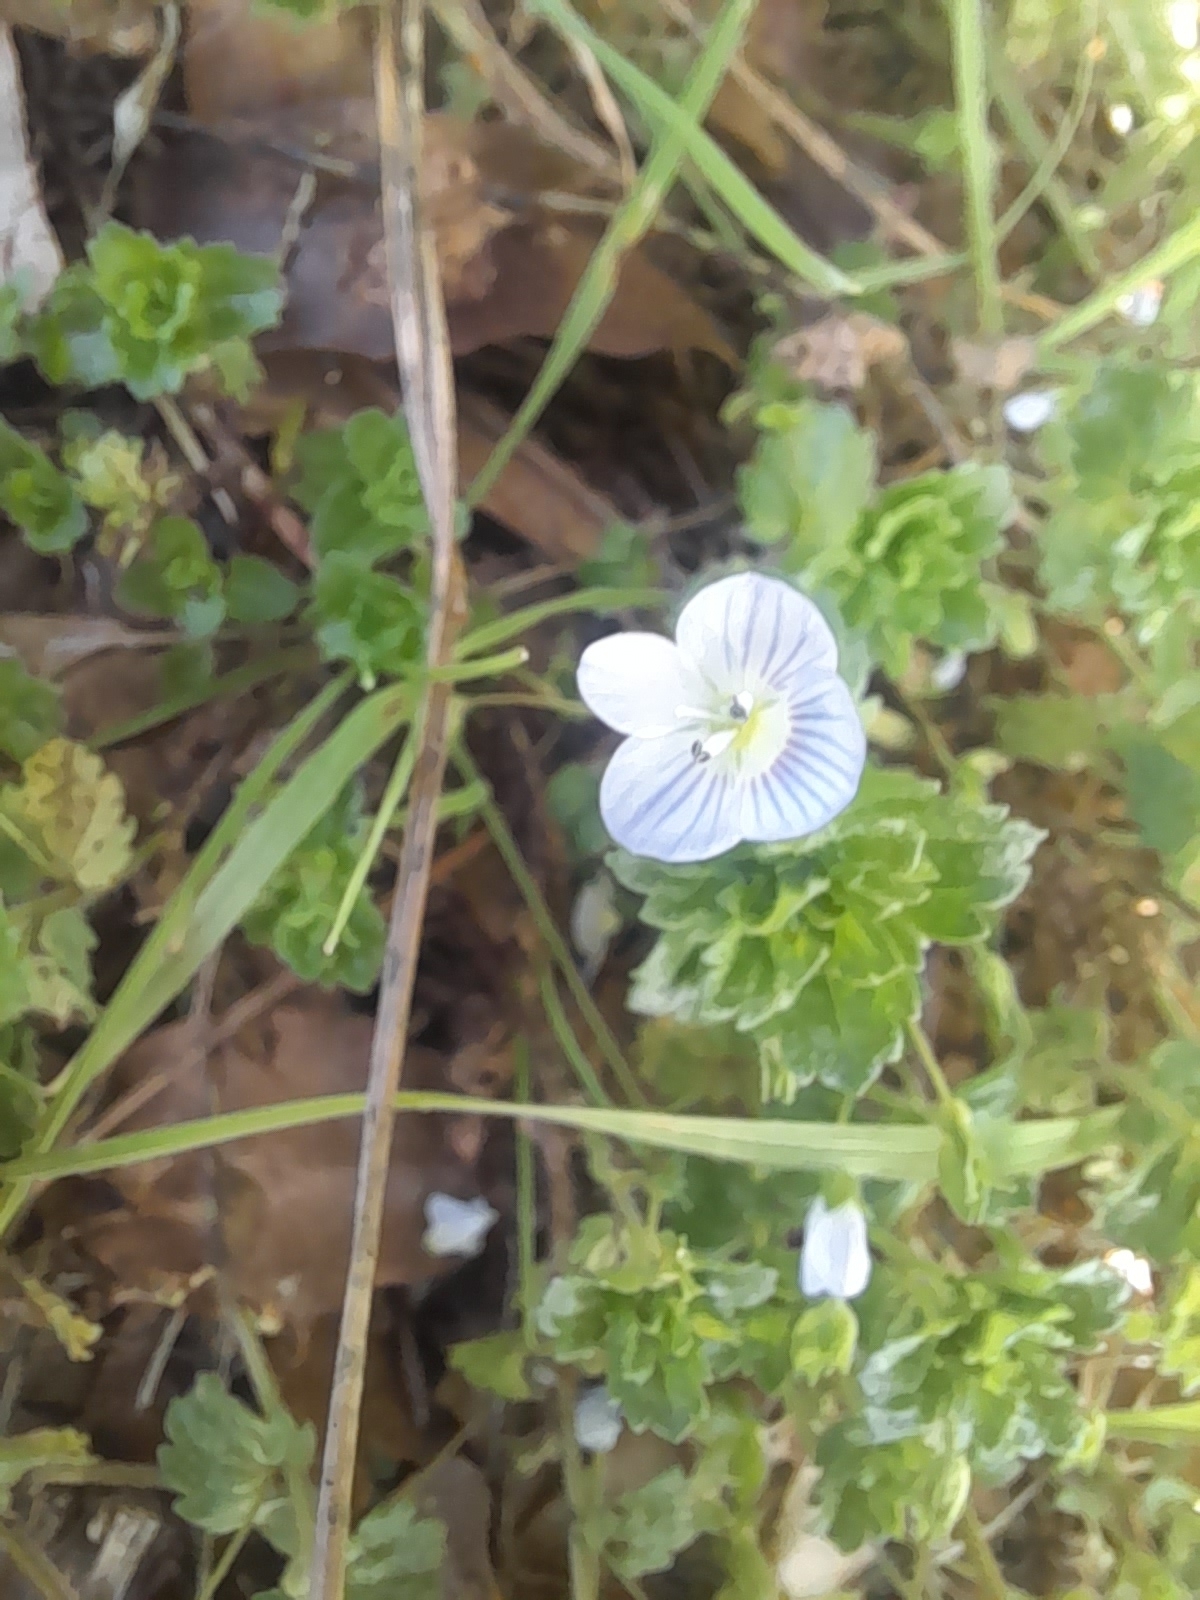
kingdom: Plantae
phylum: Tracheophyta
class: Magnoliopsida
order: Lamiales
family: Plantaginaceae
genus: Veronica
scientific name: Veronica persica
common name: Common field-speedwell
